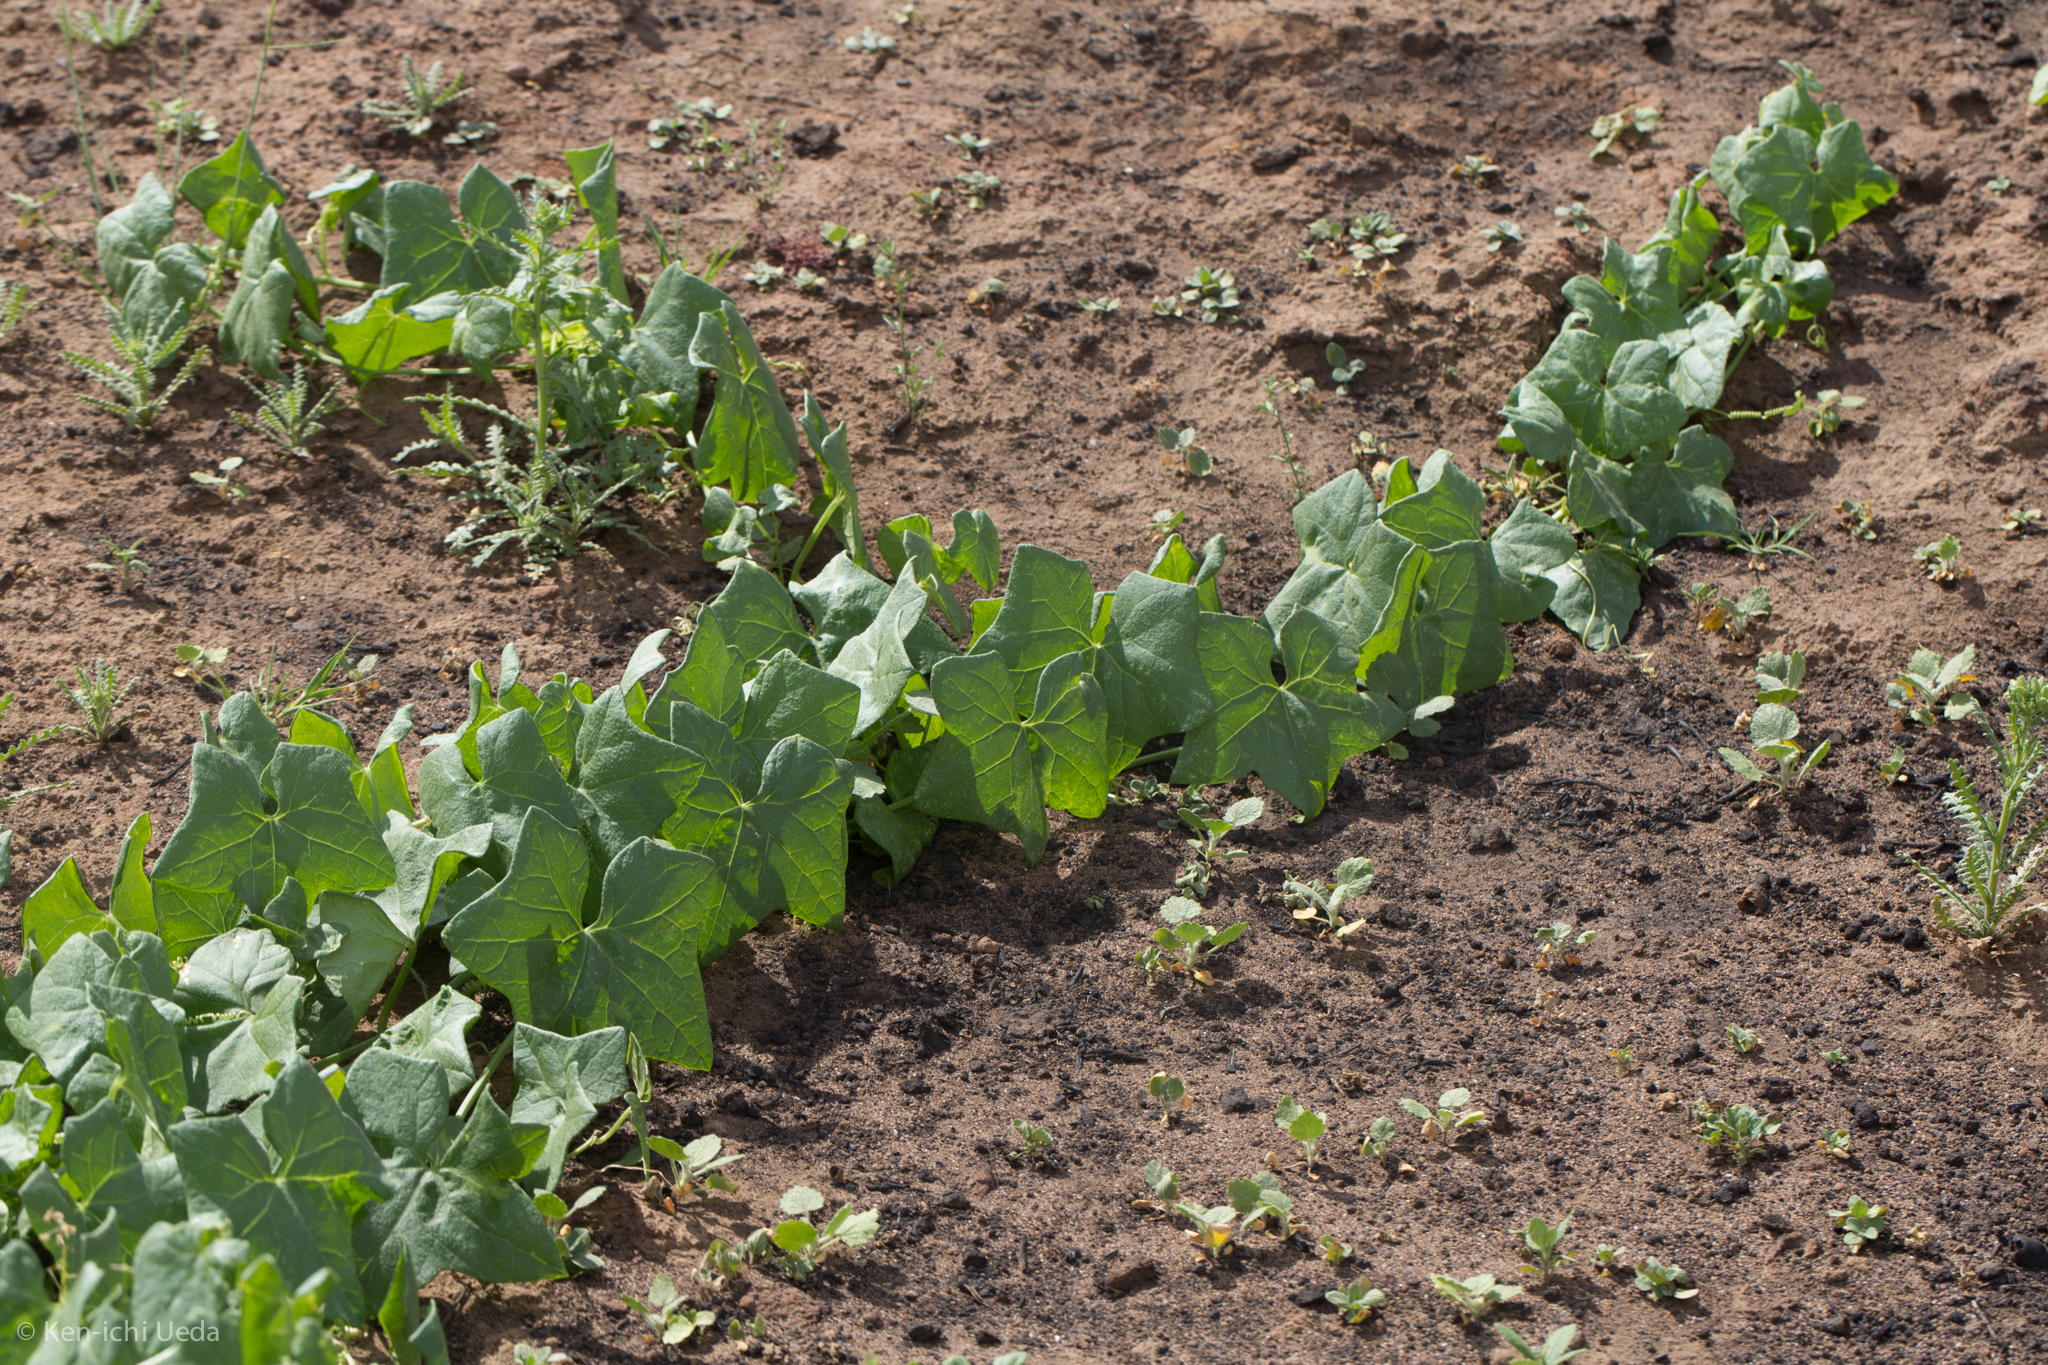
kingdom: Plantae
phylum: Tracheophyta
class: Magnoliopsida
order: Cucurbitales
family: Cucurbitaceae
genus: Marah
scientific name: Marah fabacea
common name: California manroot
